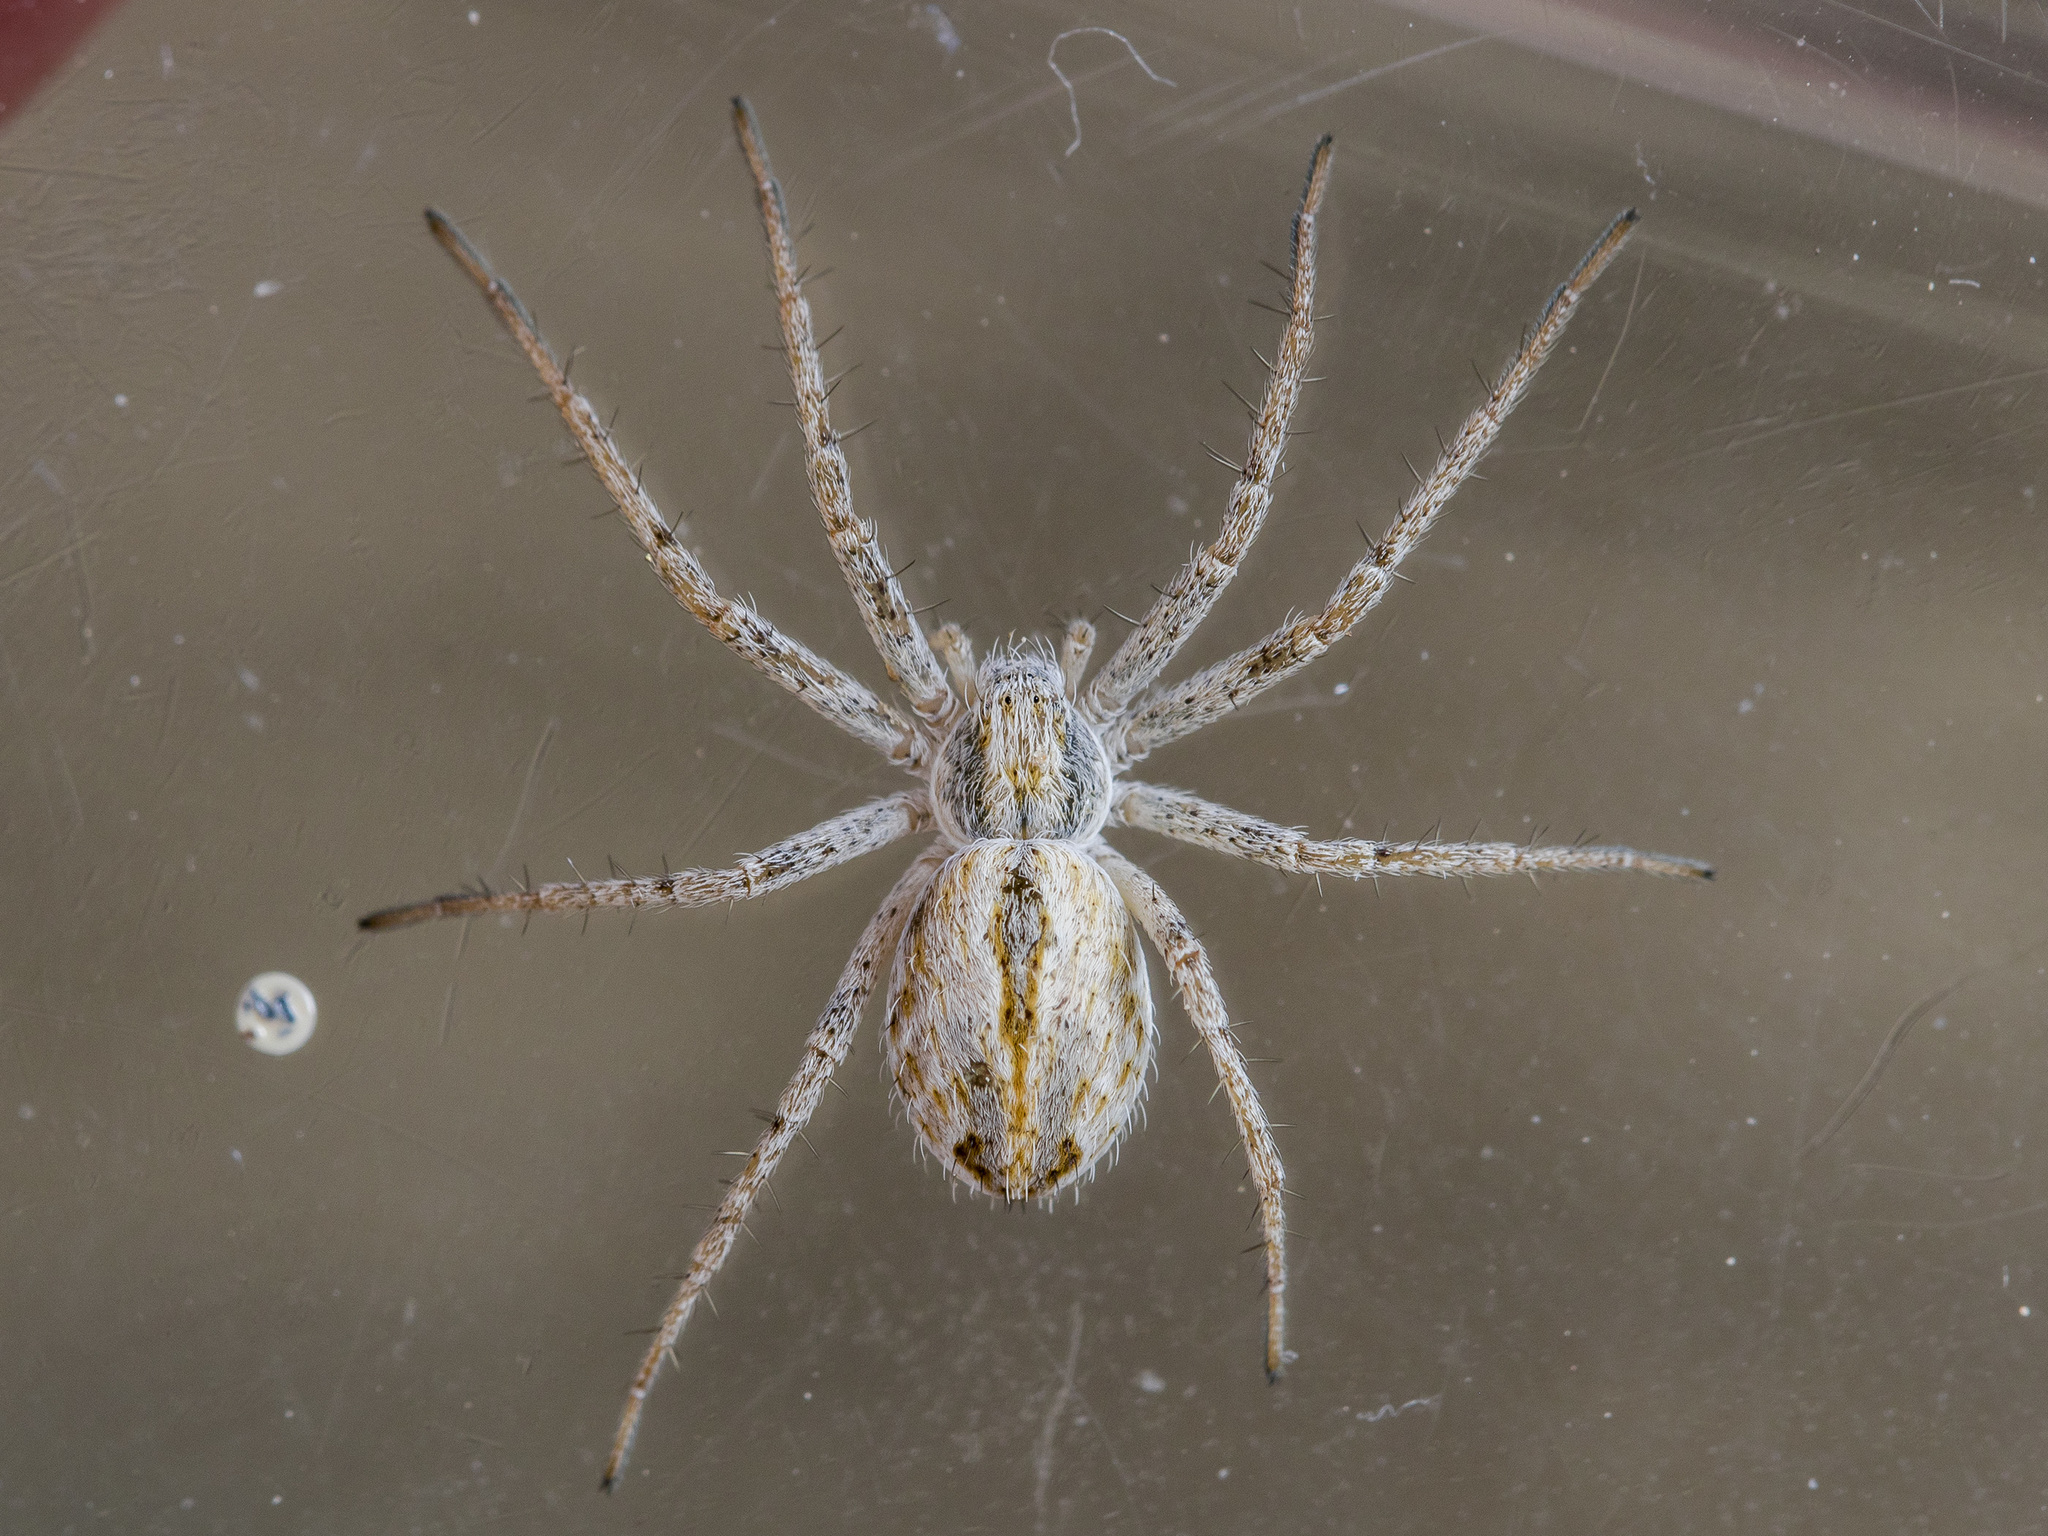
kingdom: Animalia
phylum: Arthropoda
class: Arachnida
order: Araneae
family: Philodromidae
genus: Thanatus
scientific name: Thanatus fabricii
